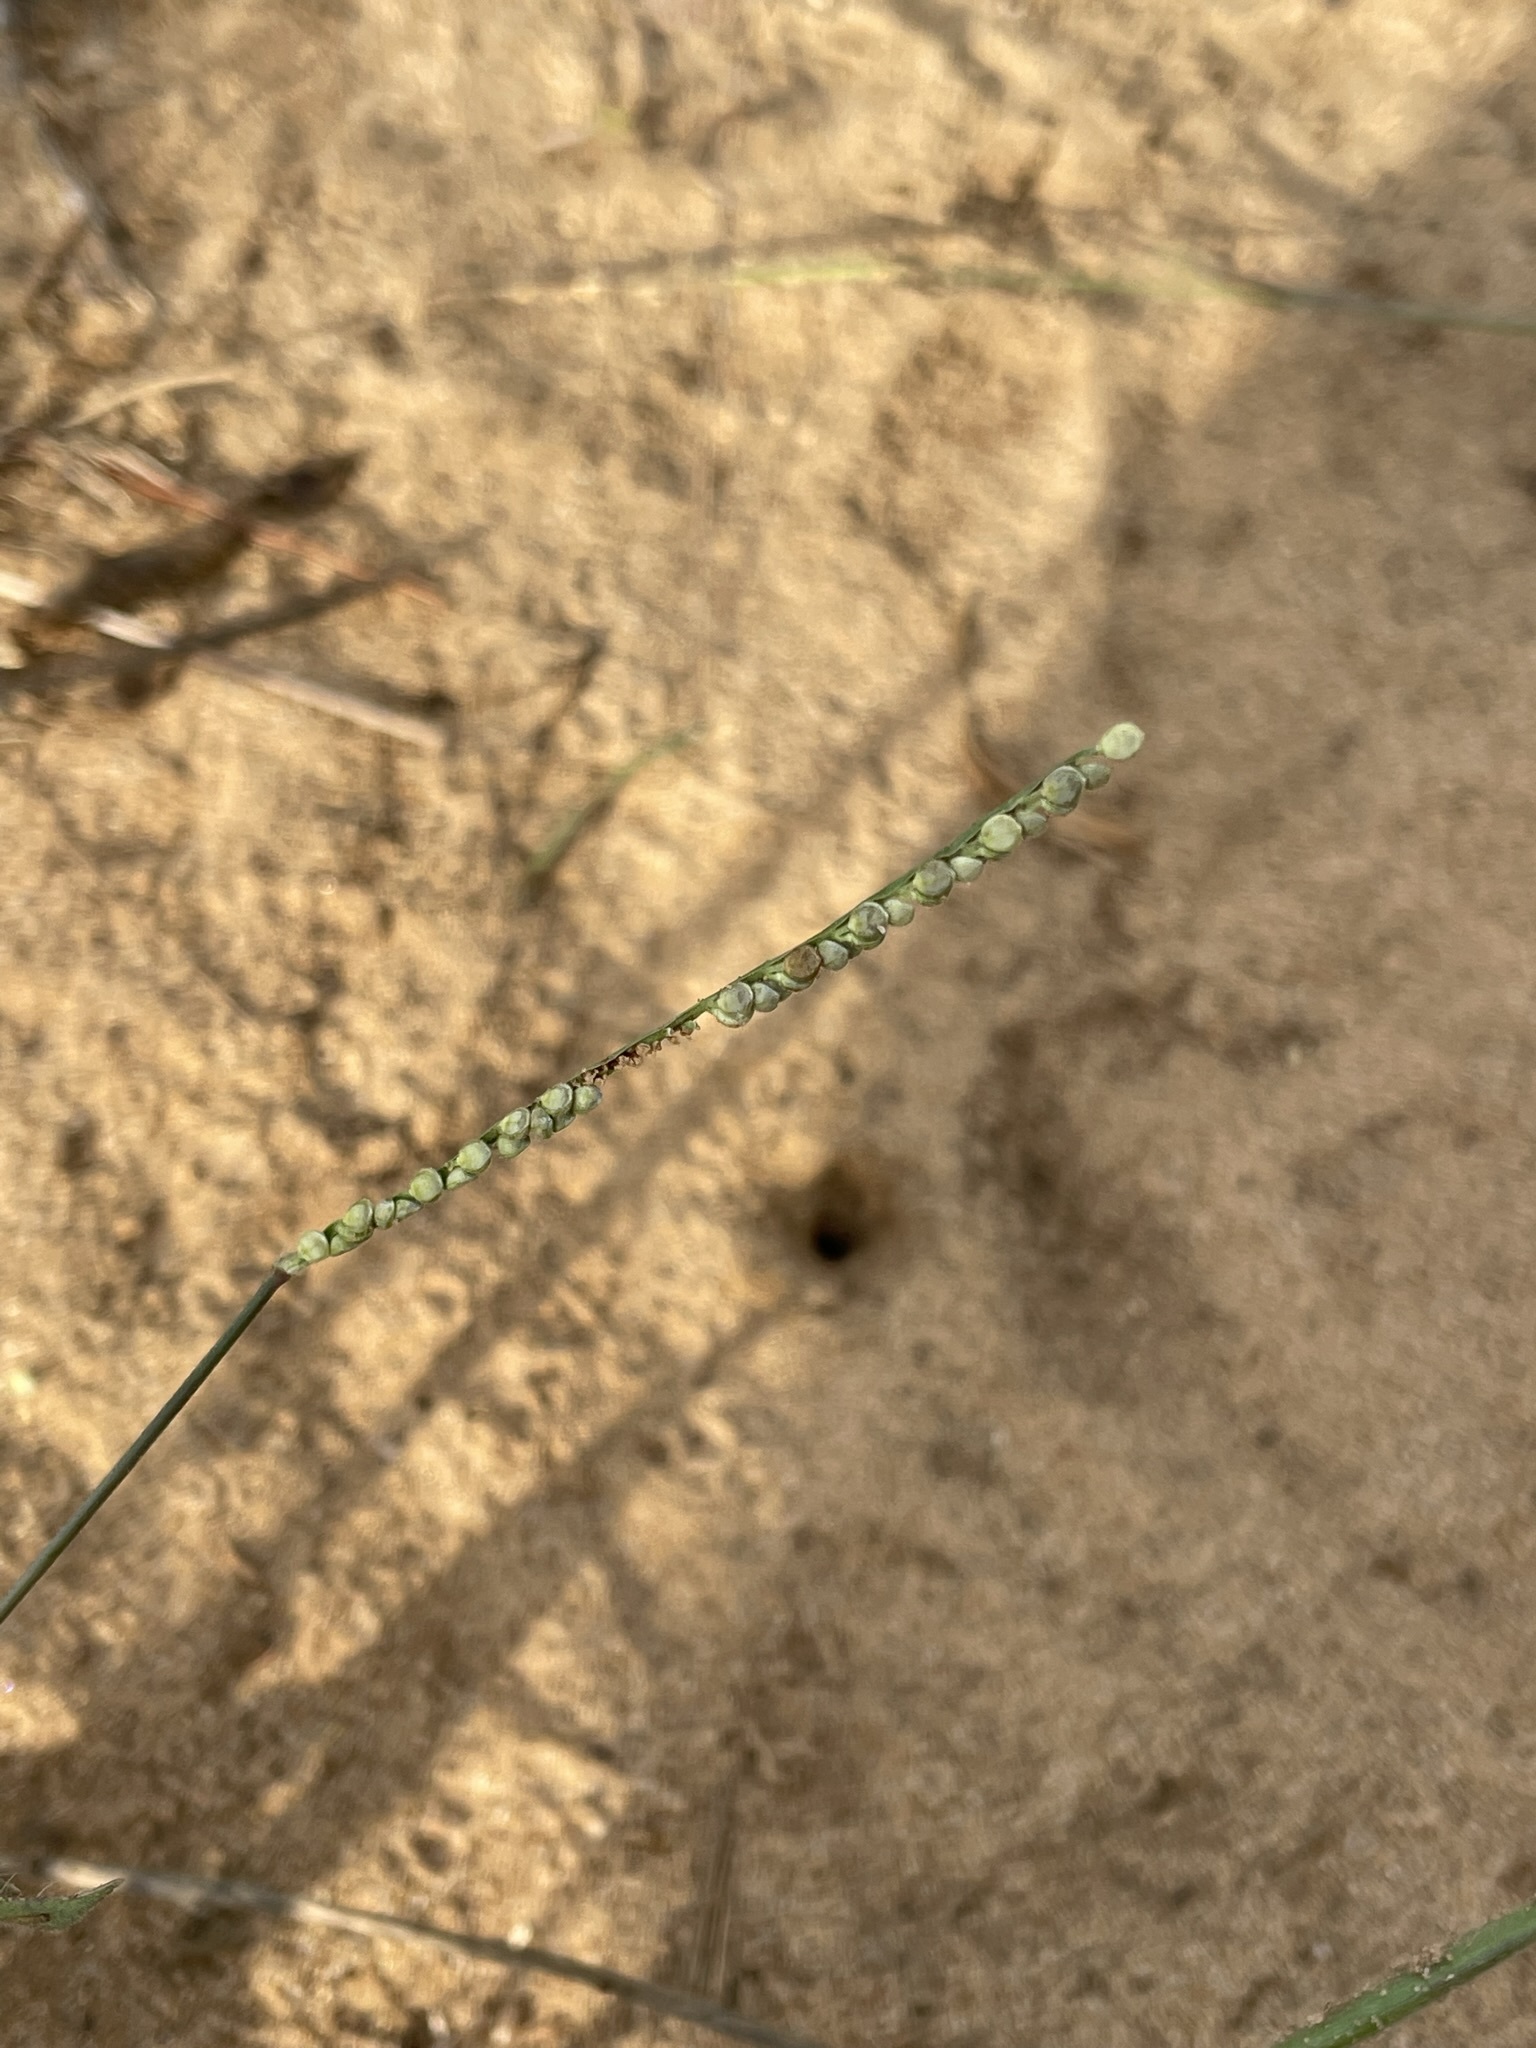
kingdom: Plantae
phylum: Tracheophyta
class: Liliopsida
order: Poales
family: Poaceae
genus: Paspalum
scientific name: Paspalum setaceum
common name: Slender paspalum
